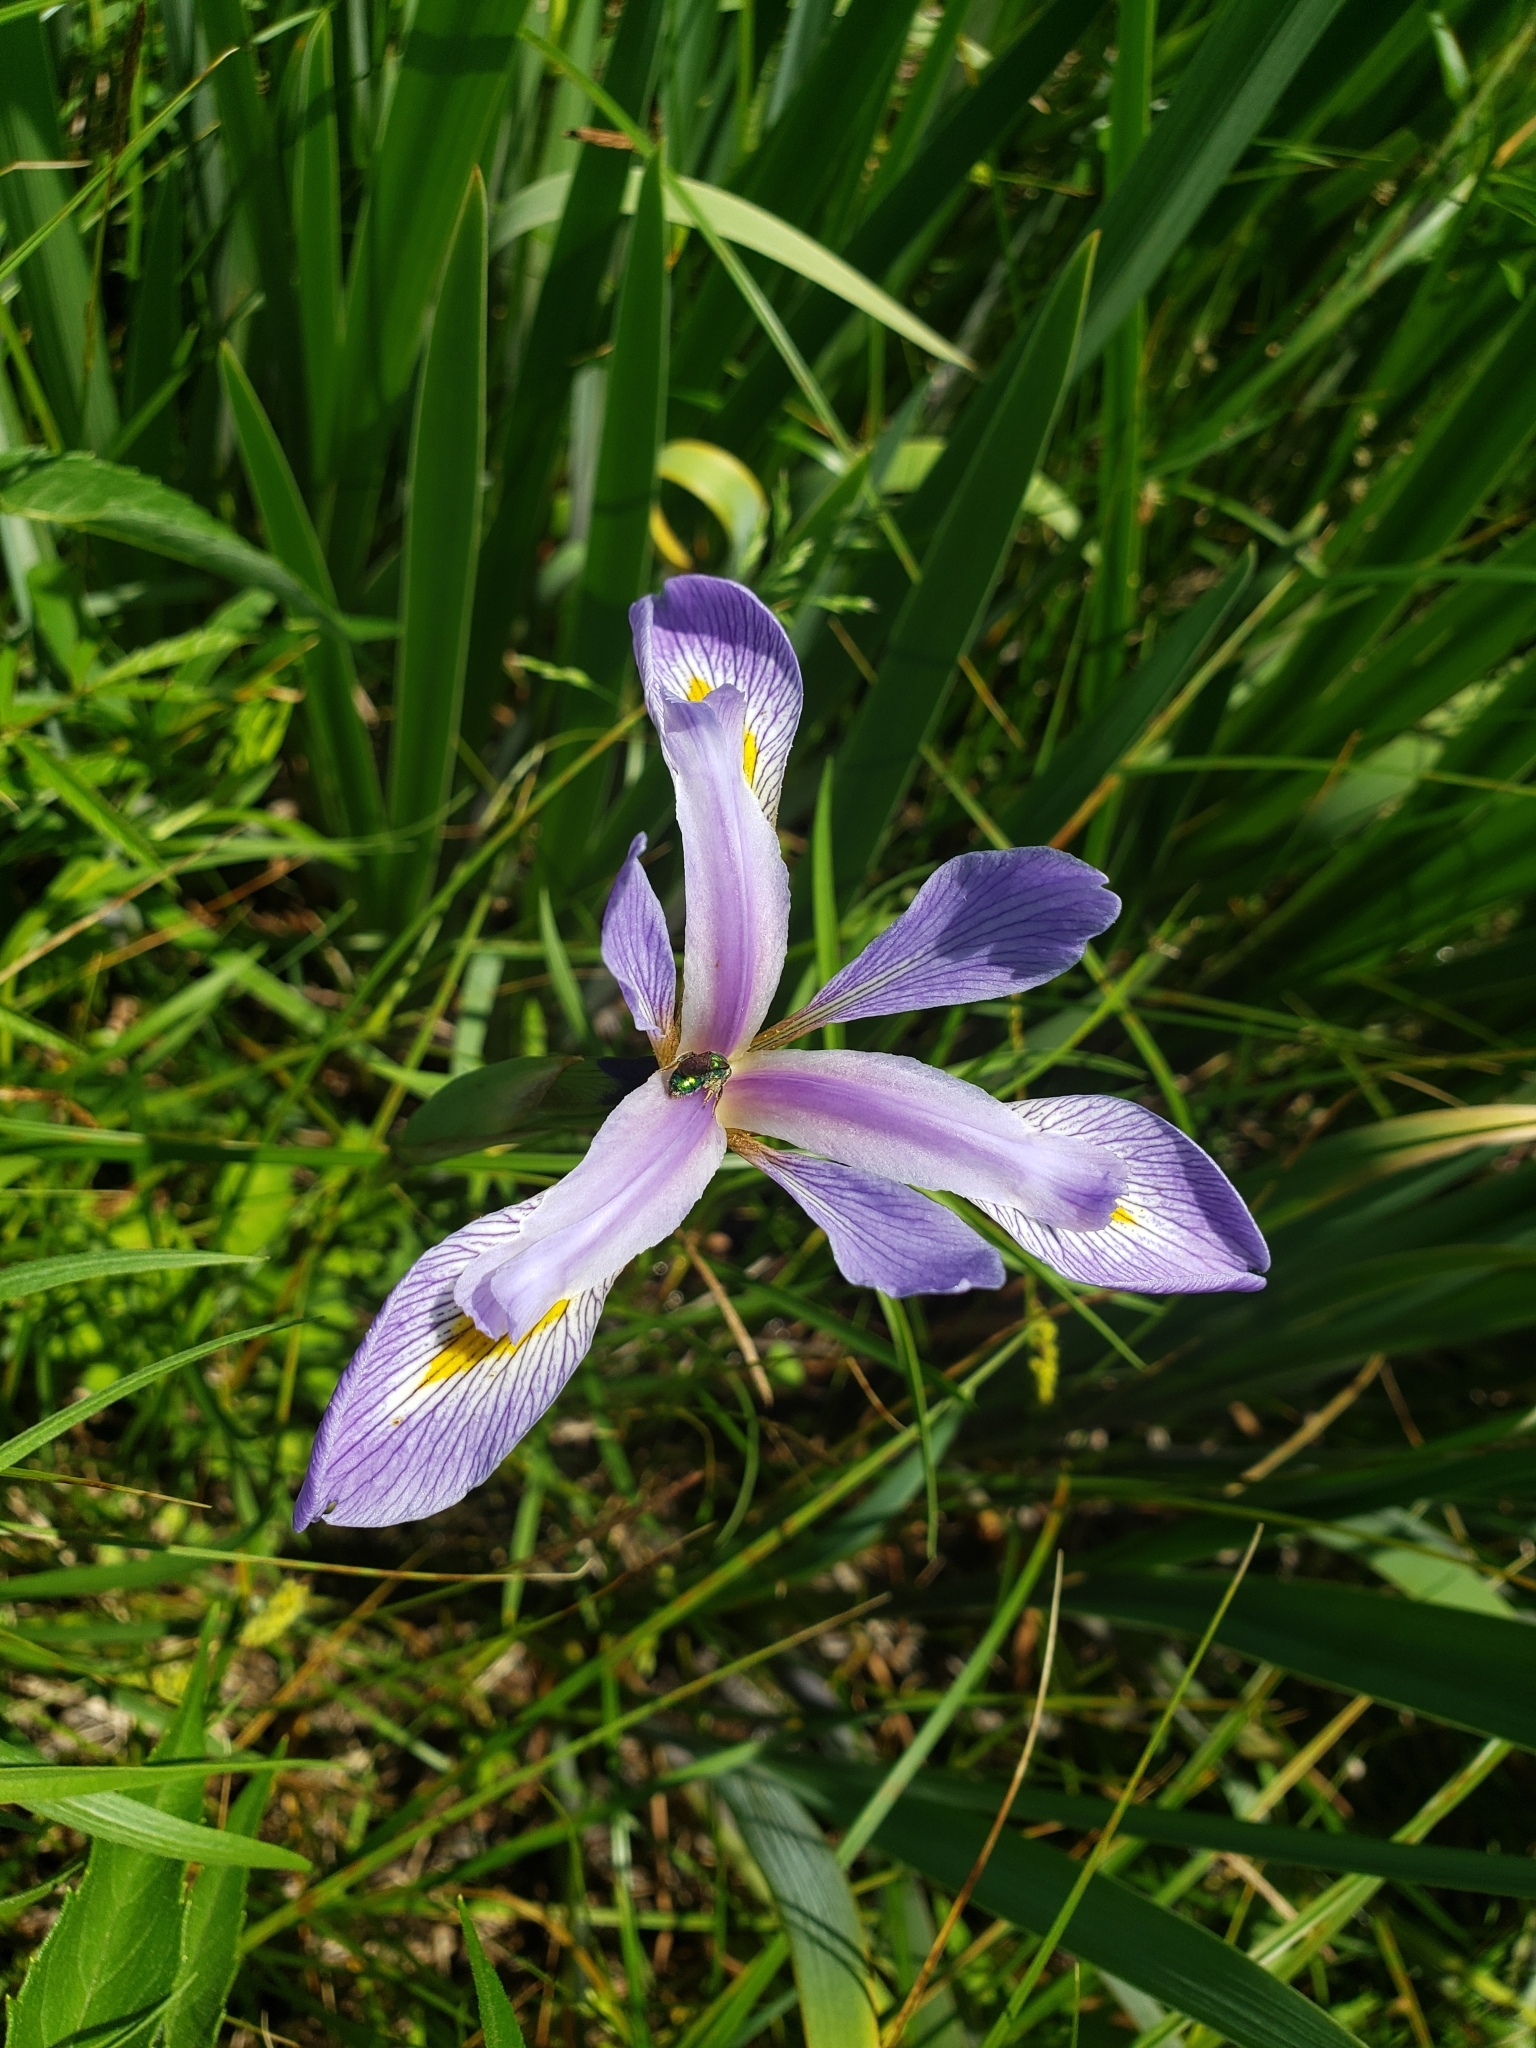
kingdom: Plantae
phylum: Tracheophyta
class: Liliopsida
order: Asparagales
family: Iridaceae
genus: Iris
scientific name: Iris virginica
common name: Southern blue flag
